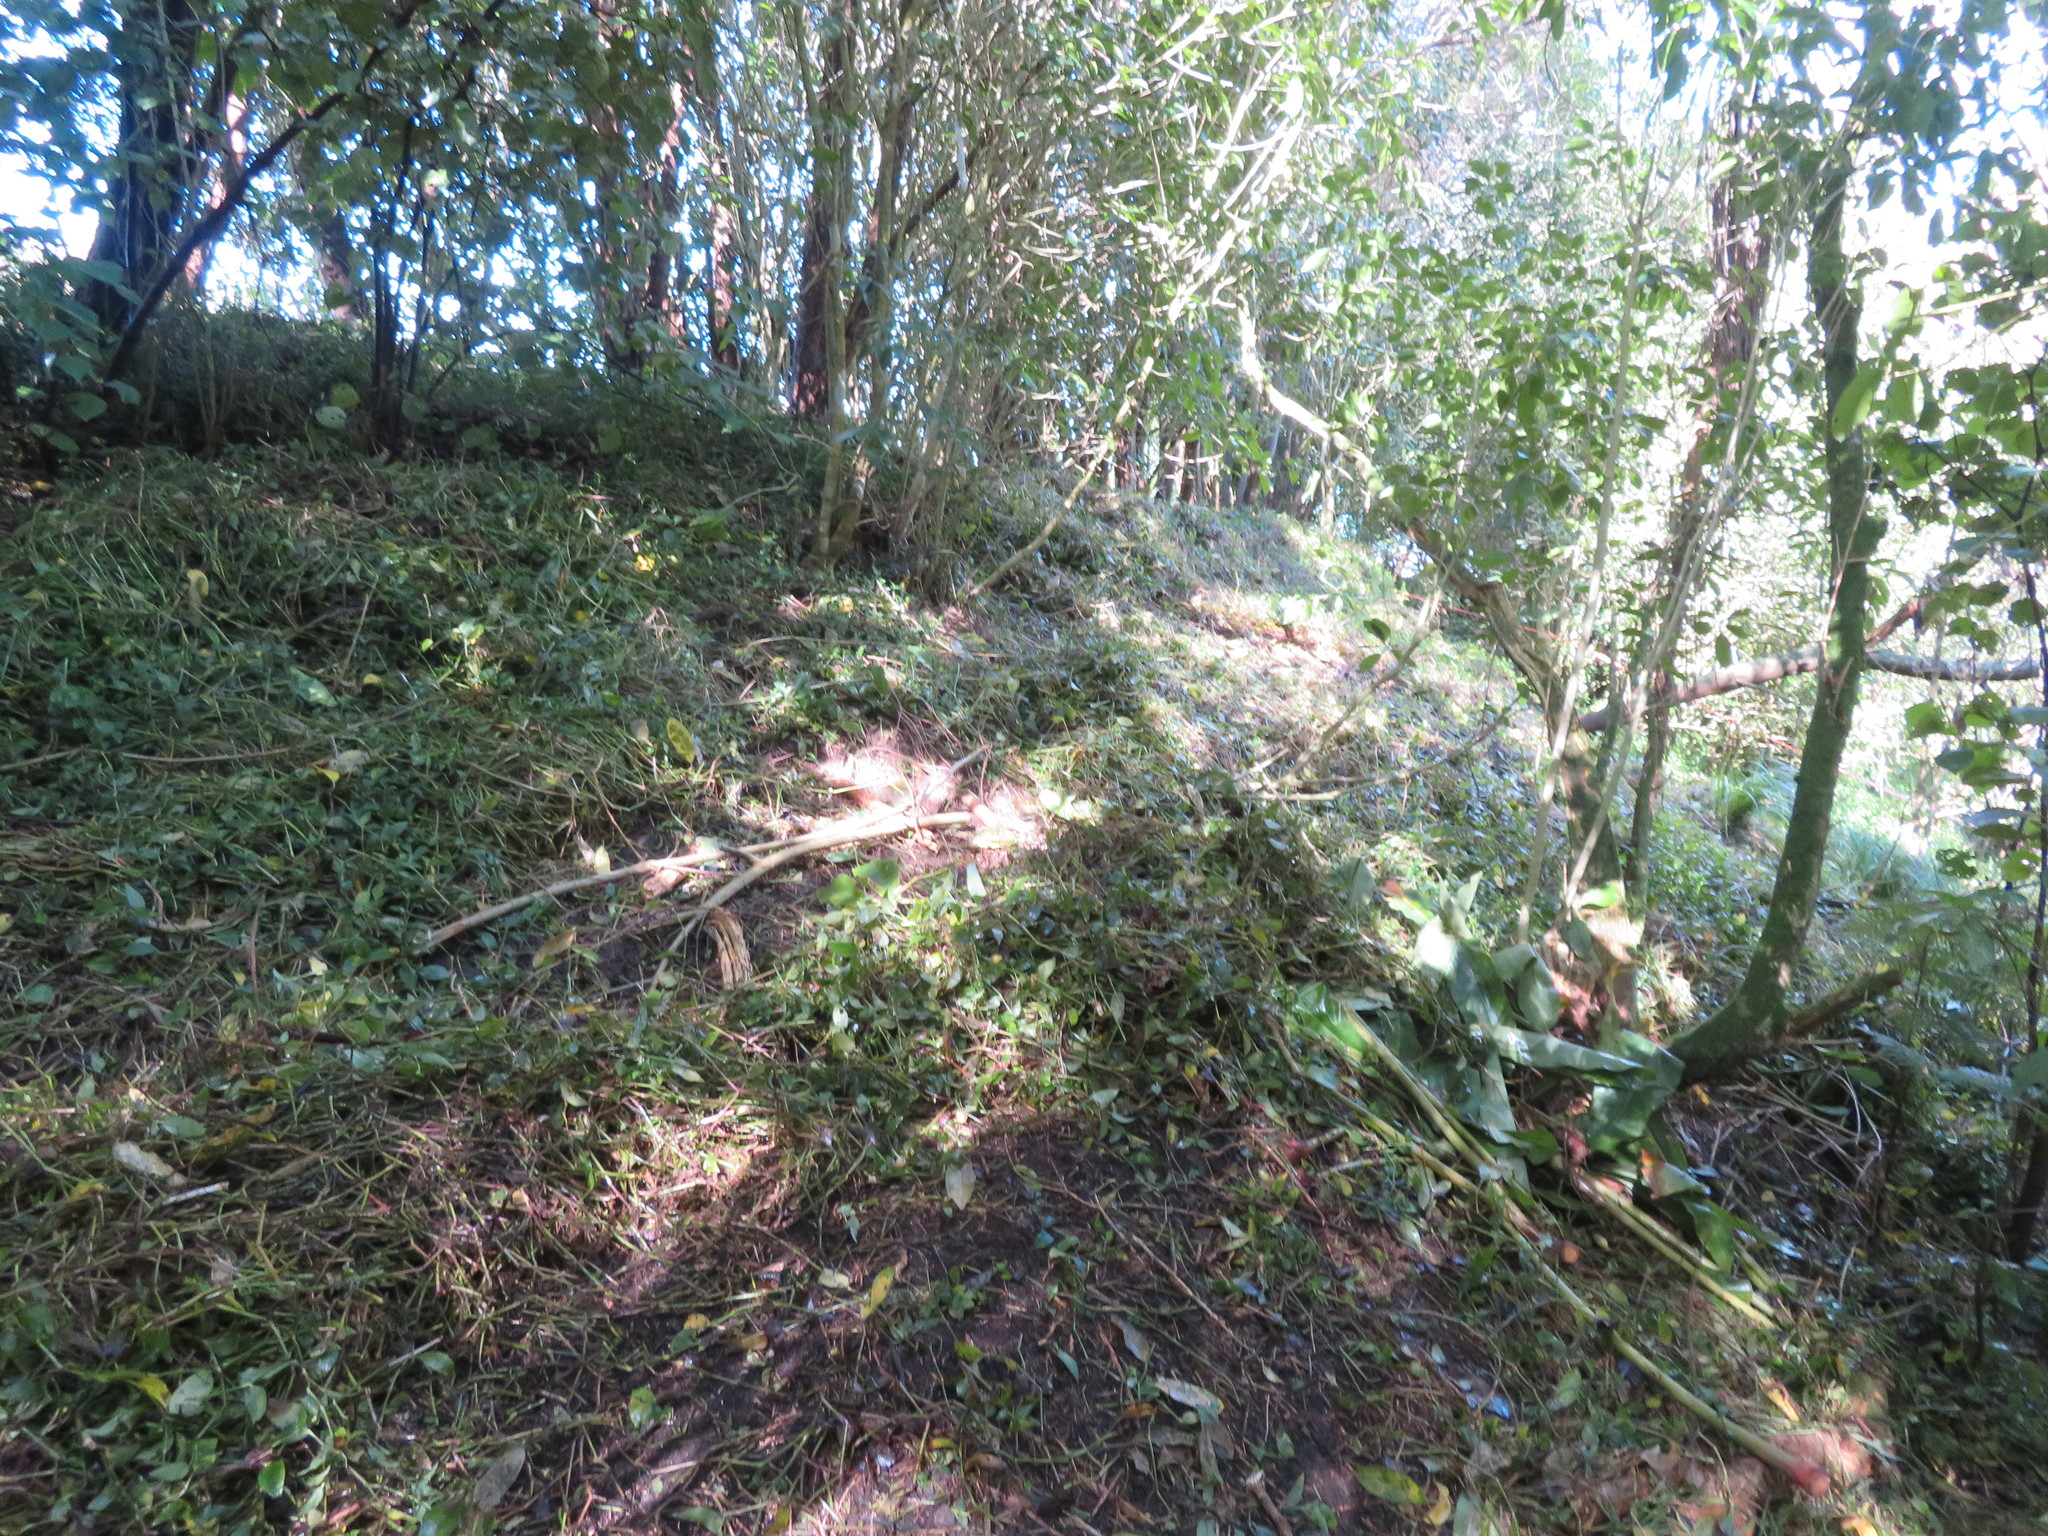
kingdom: Plantae
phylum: Tracheophyta
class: Liliopsida
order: Commelinales
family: Commelinaceae
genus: Tradescantia
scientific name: Tradescantia fluminensis
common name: Wandering-jew
